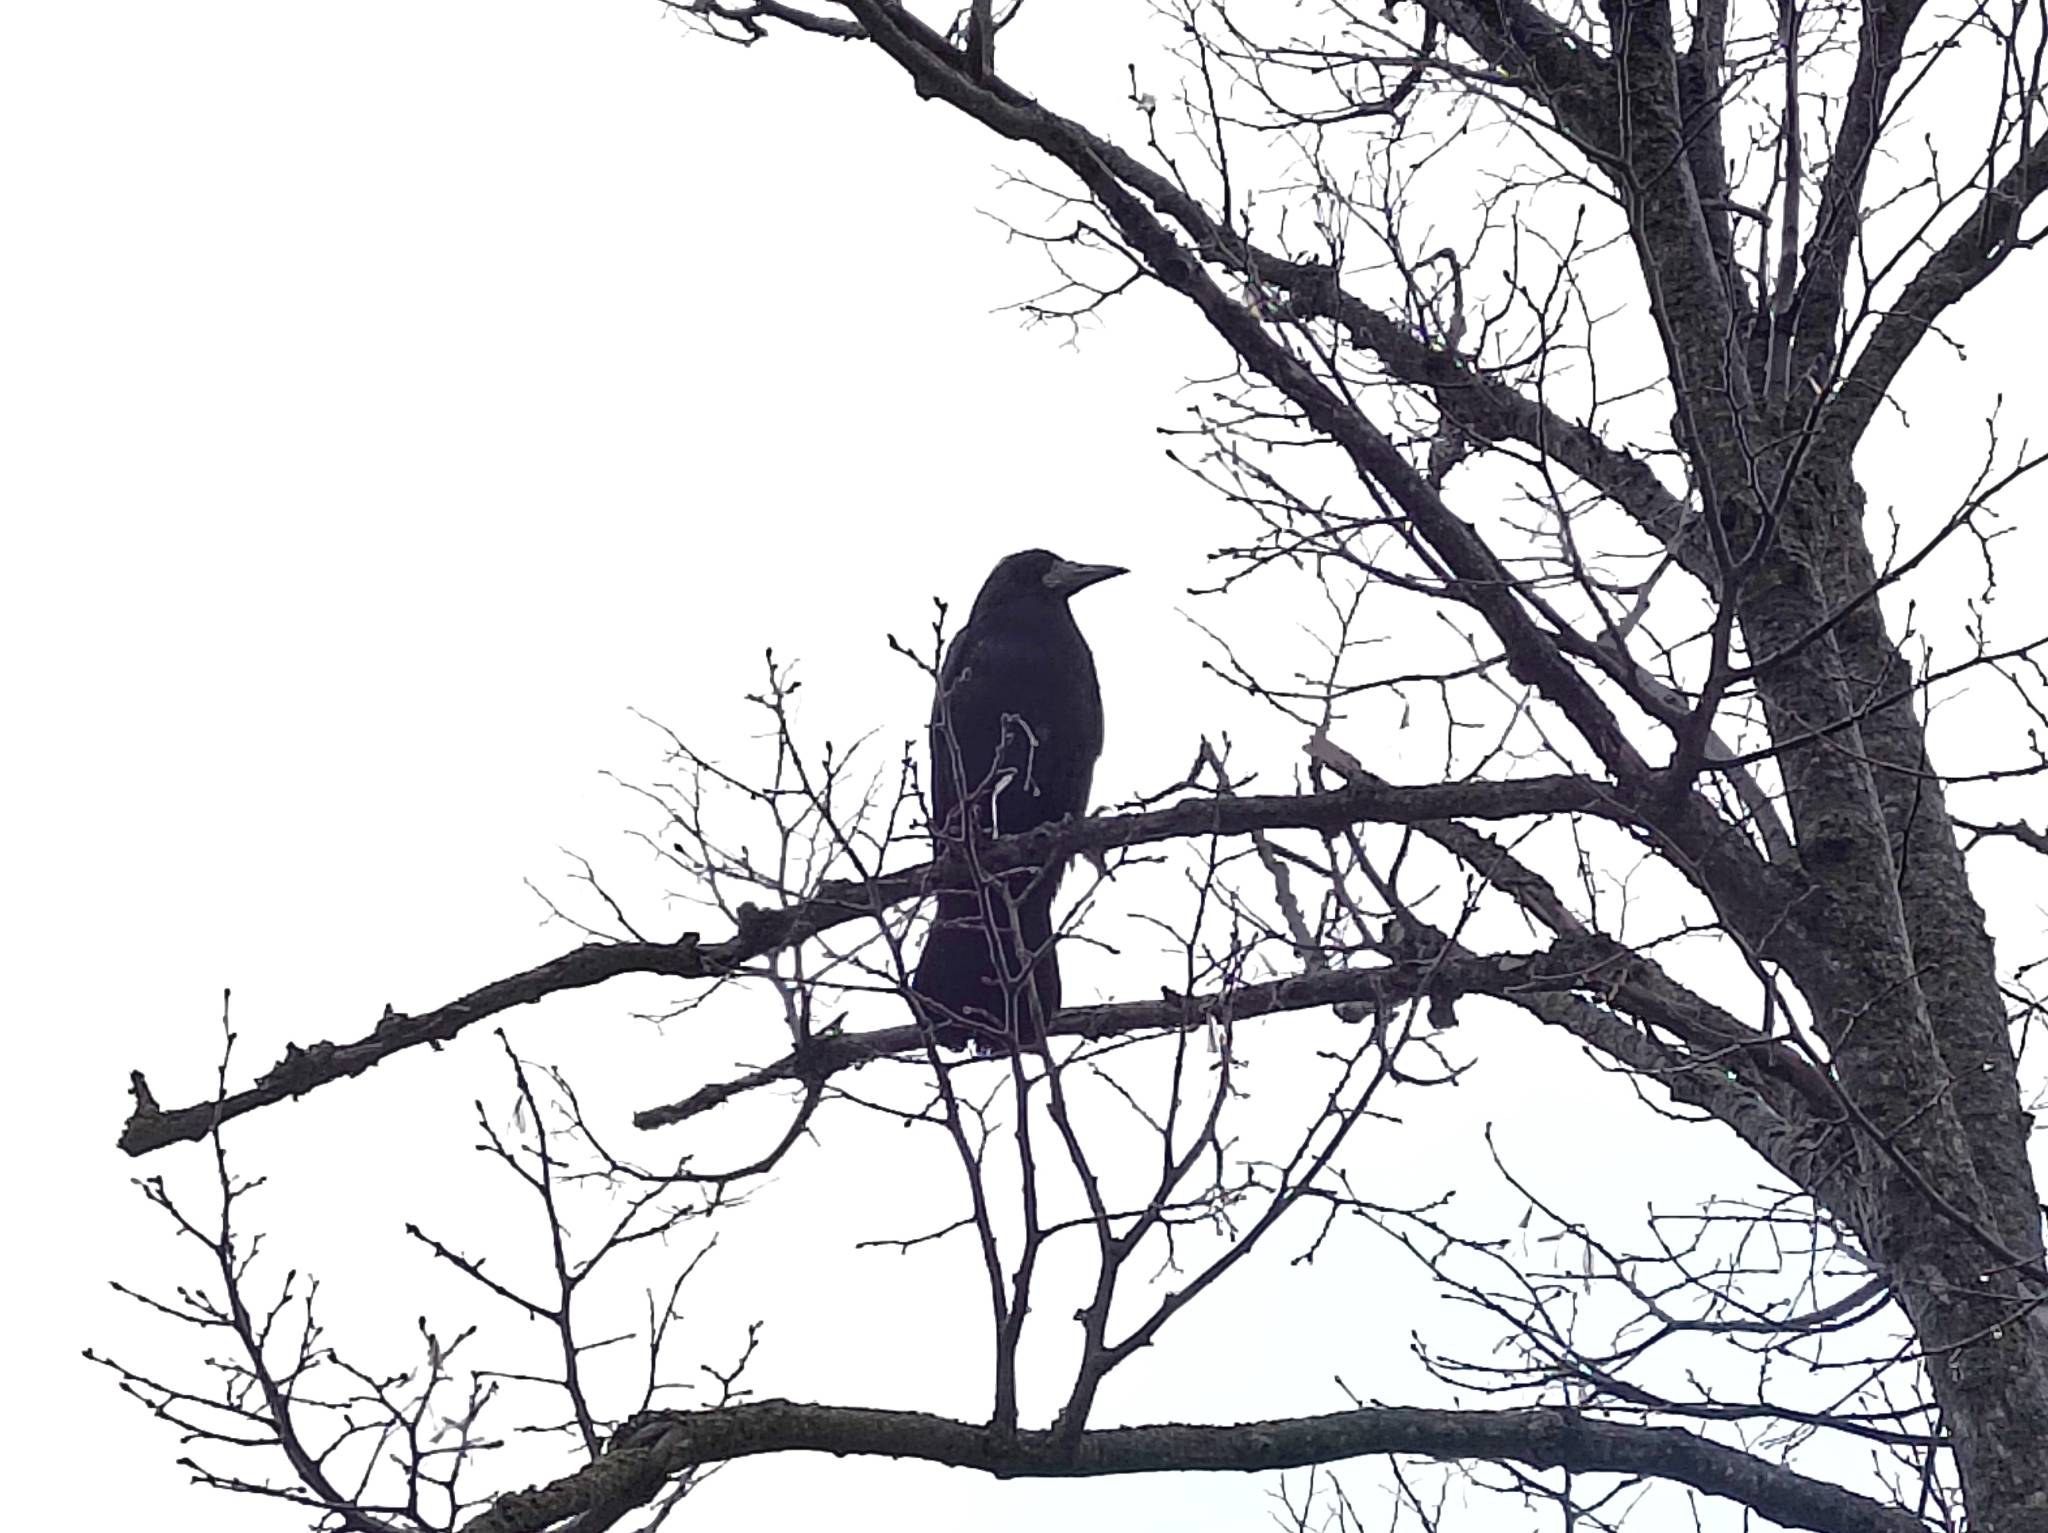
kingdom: Animalia
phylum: Chordata
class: Aves
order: Passeriformes
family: Corvidae
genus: Corvus
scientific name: Corvus frugilegus
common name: Rook
